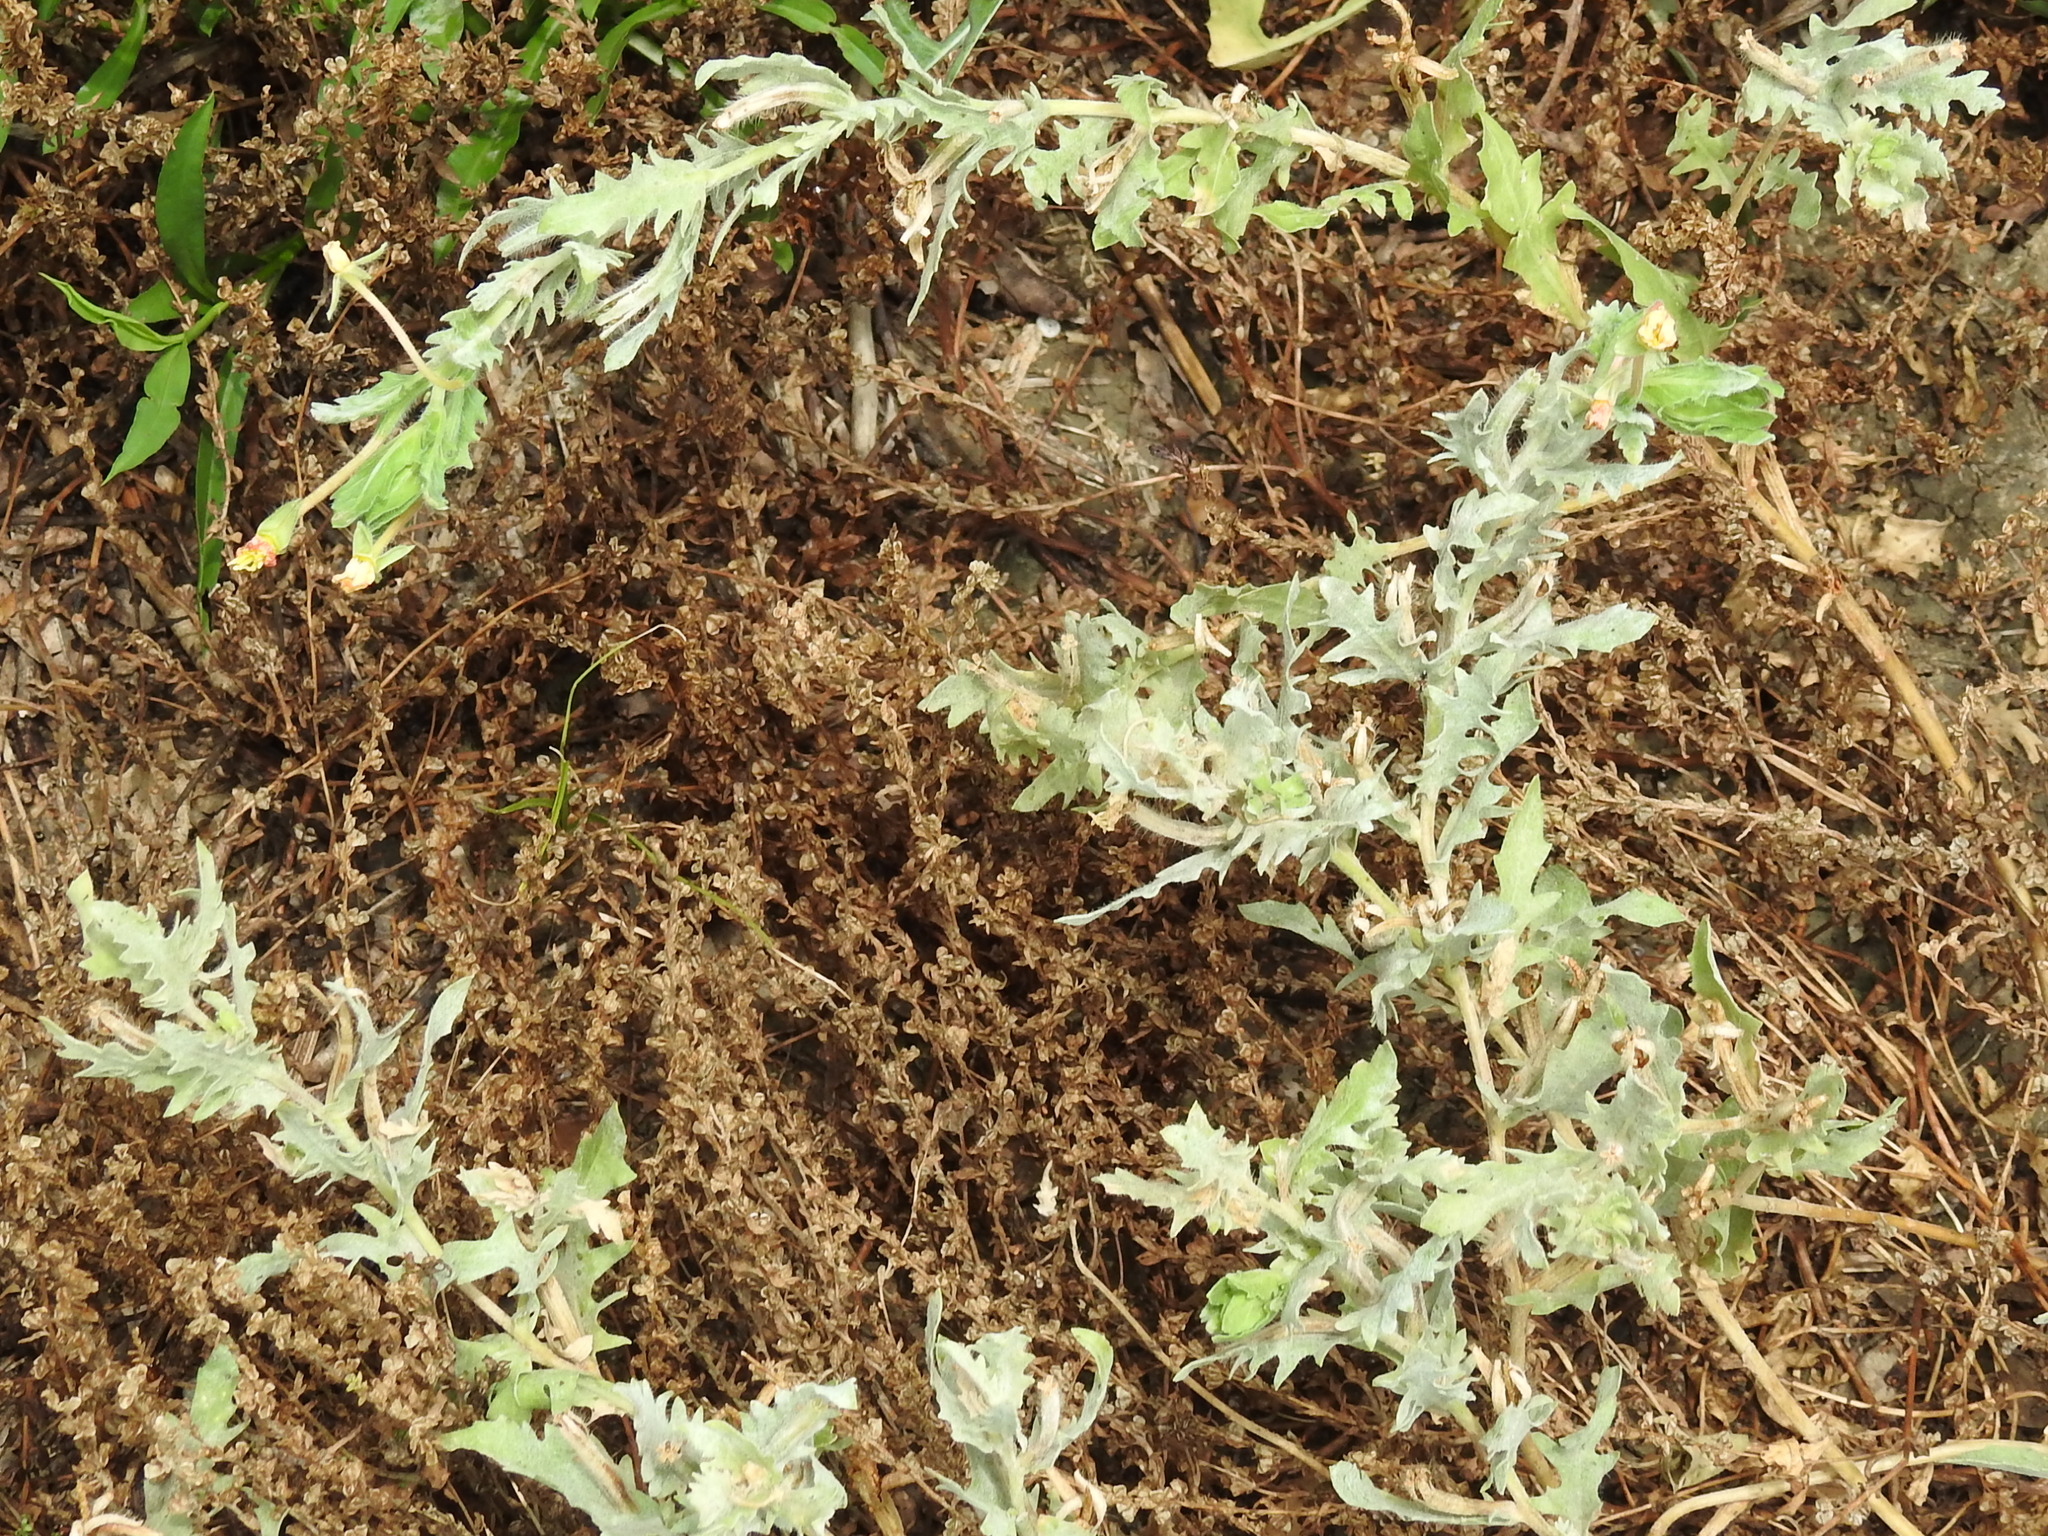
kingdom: Plantae
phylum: Tracheophyta
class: Magnoliopsida
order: Myrtales
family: Onagraceae
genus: Oenothera
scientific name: Oenothera laciniata
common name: Cut-leaved evening-primrose
